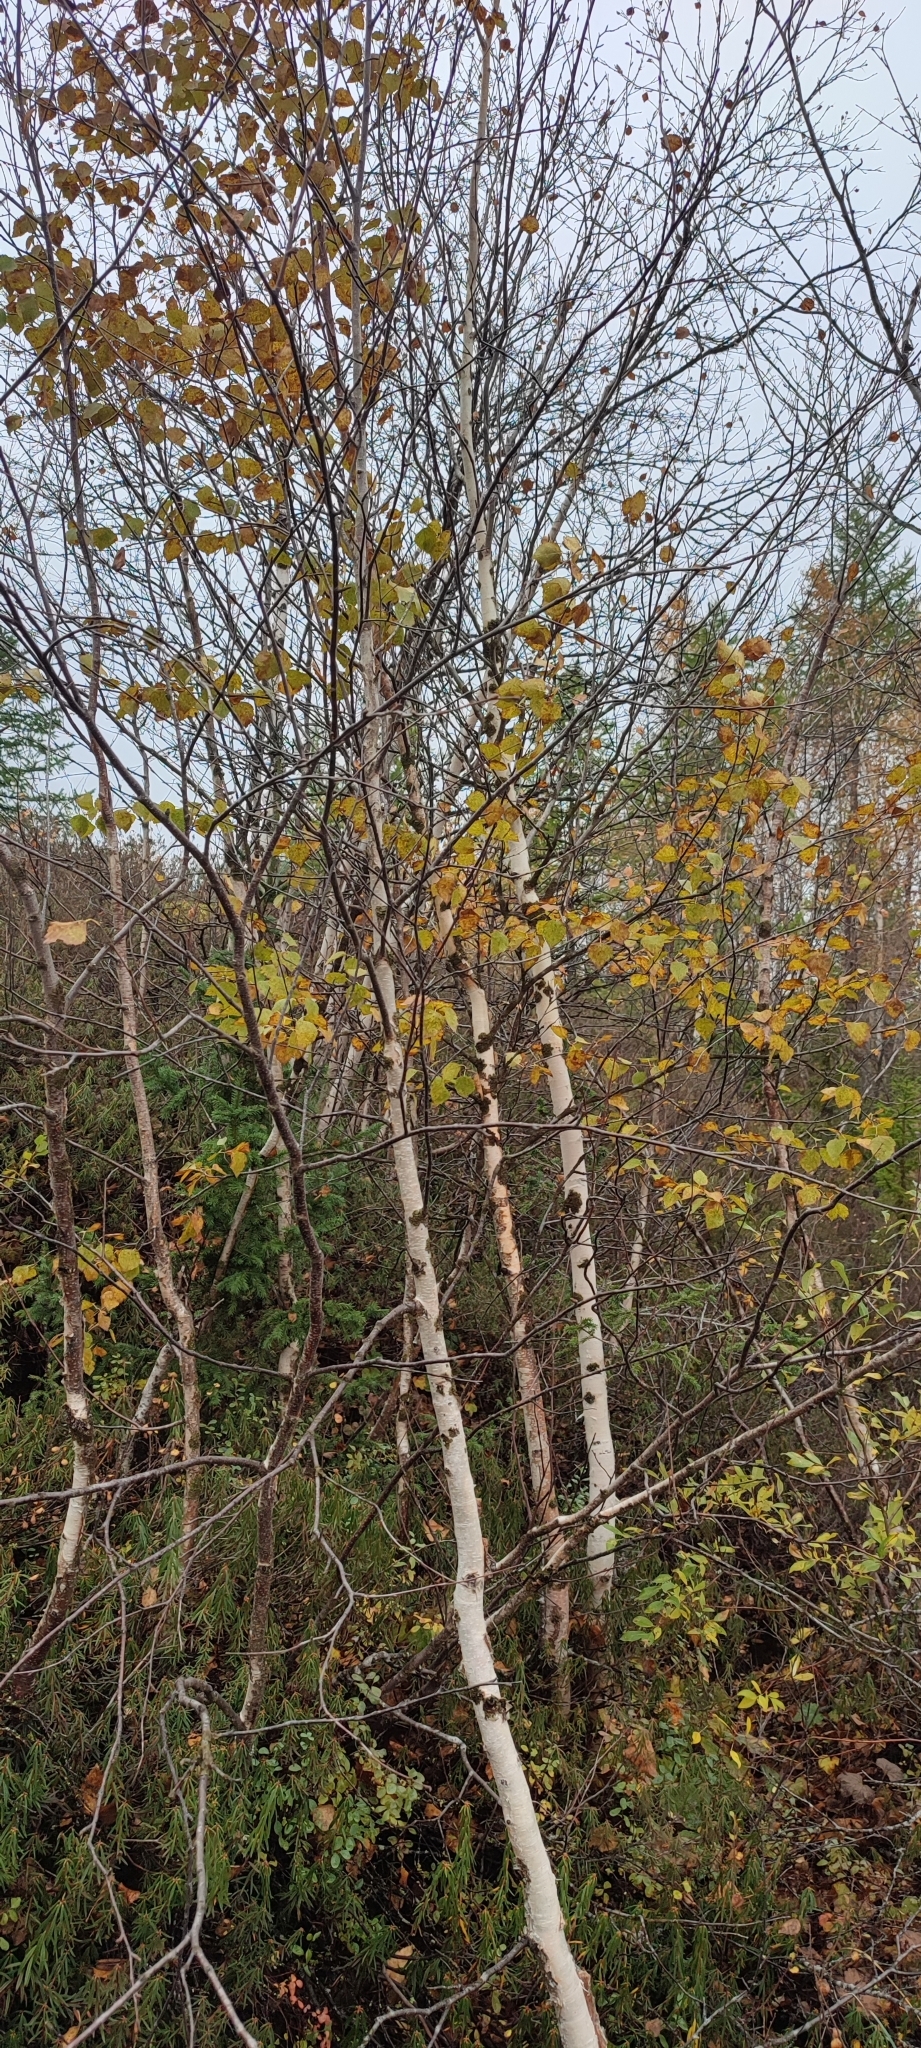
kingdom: Plantae
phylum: Tracheophyta
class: Magnoliopsida
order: Fagales
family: Betulaceae
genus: Betula
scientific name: Betula pubescens
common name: Downy birch
